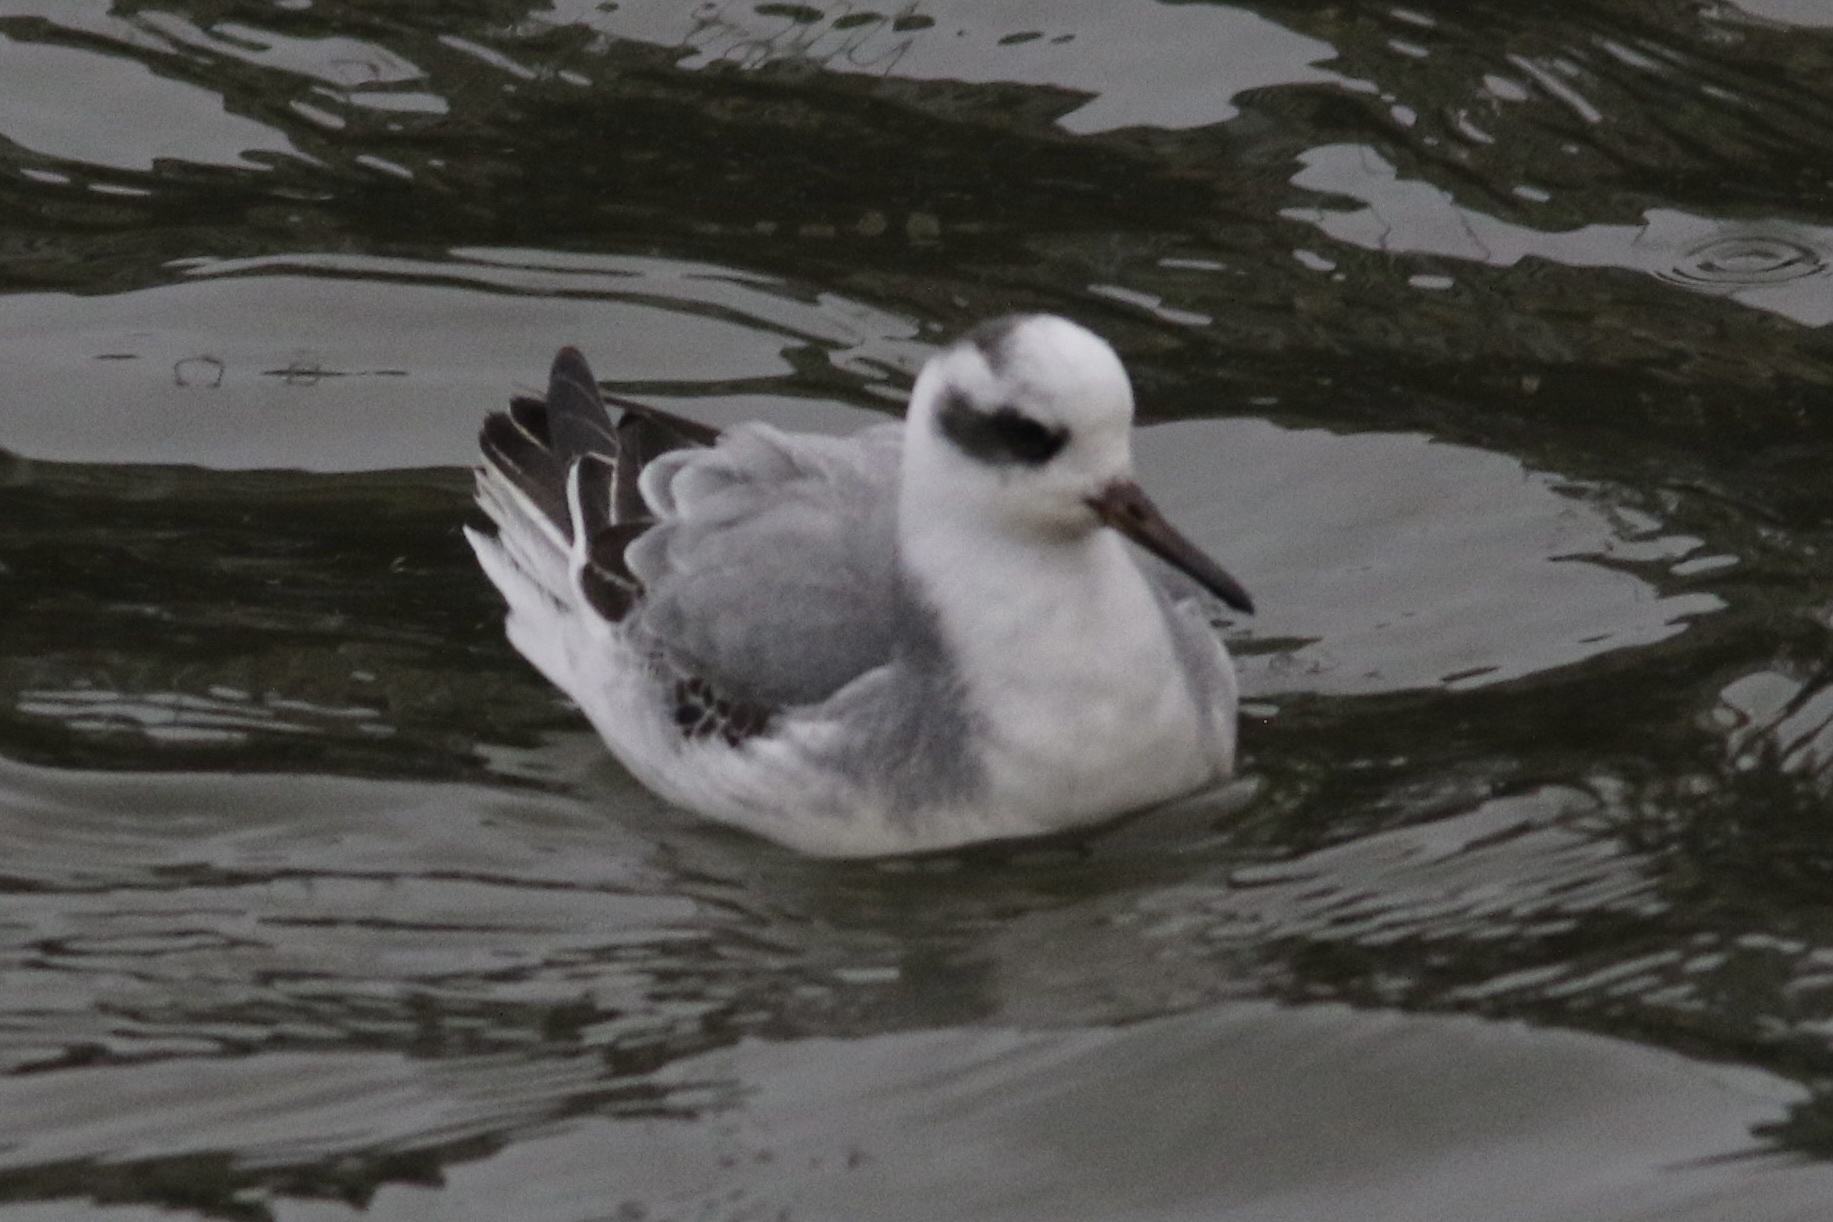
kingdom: Animalia
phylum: Chordata
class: Aves
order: Charadriiformes
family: Scolopacidae
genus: Phalaropus
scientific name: Phalaropus fulicarius
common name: Red phalarope
